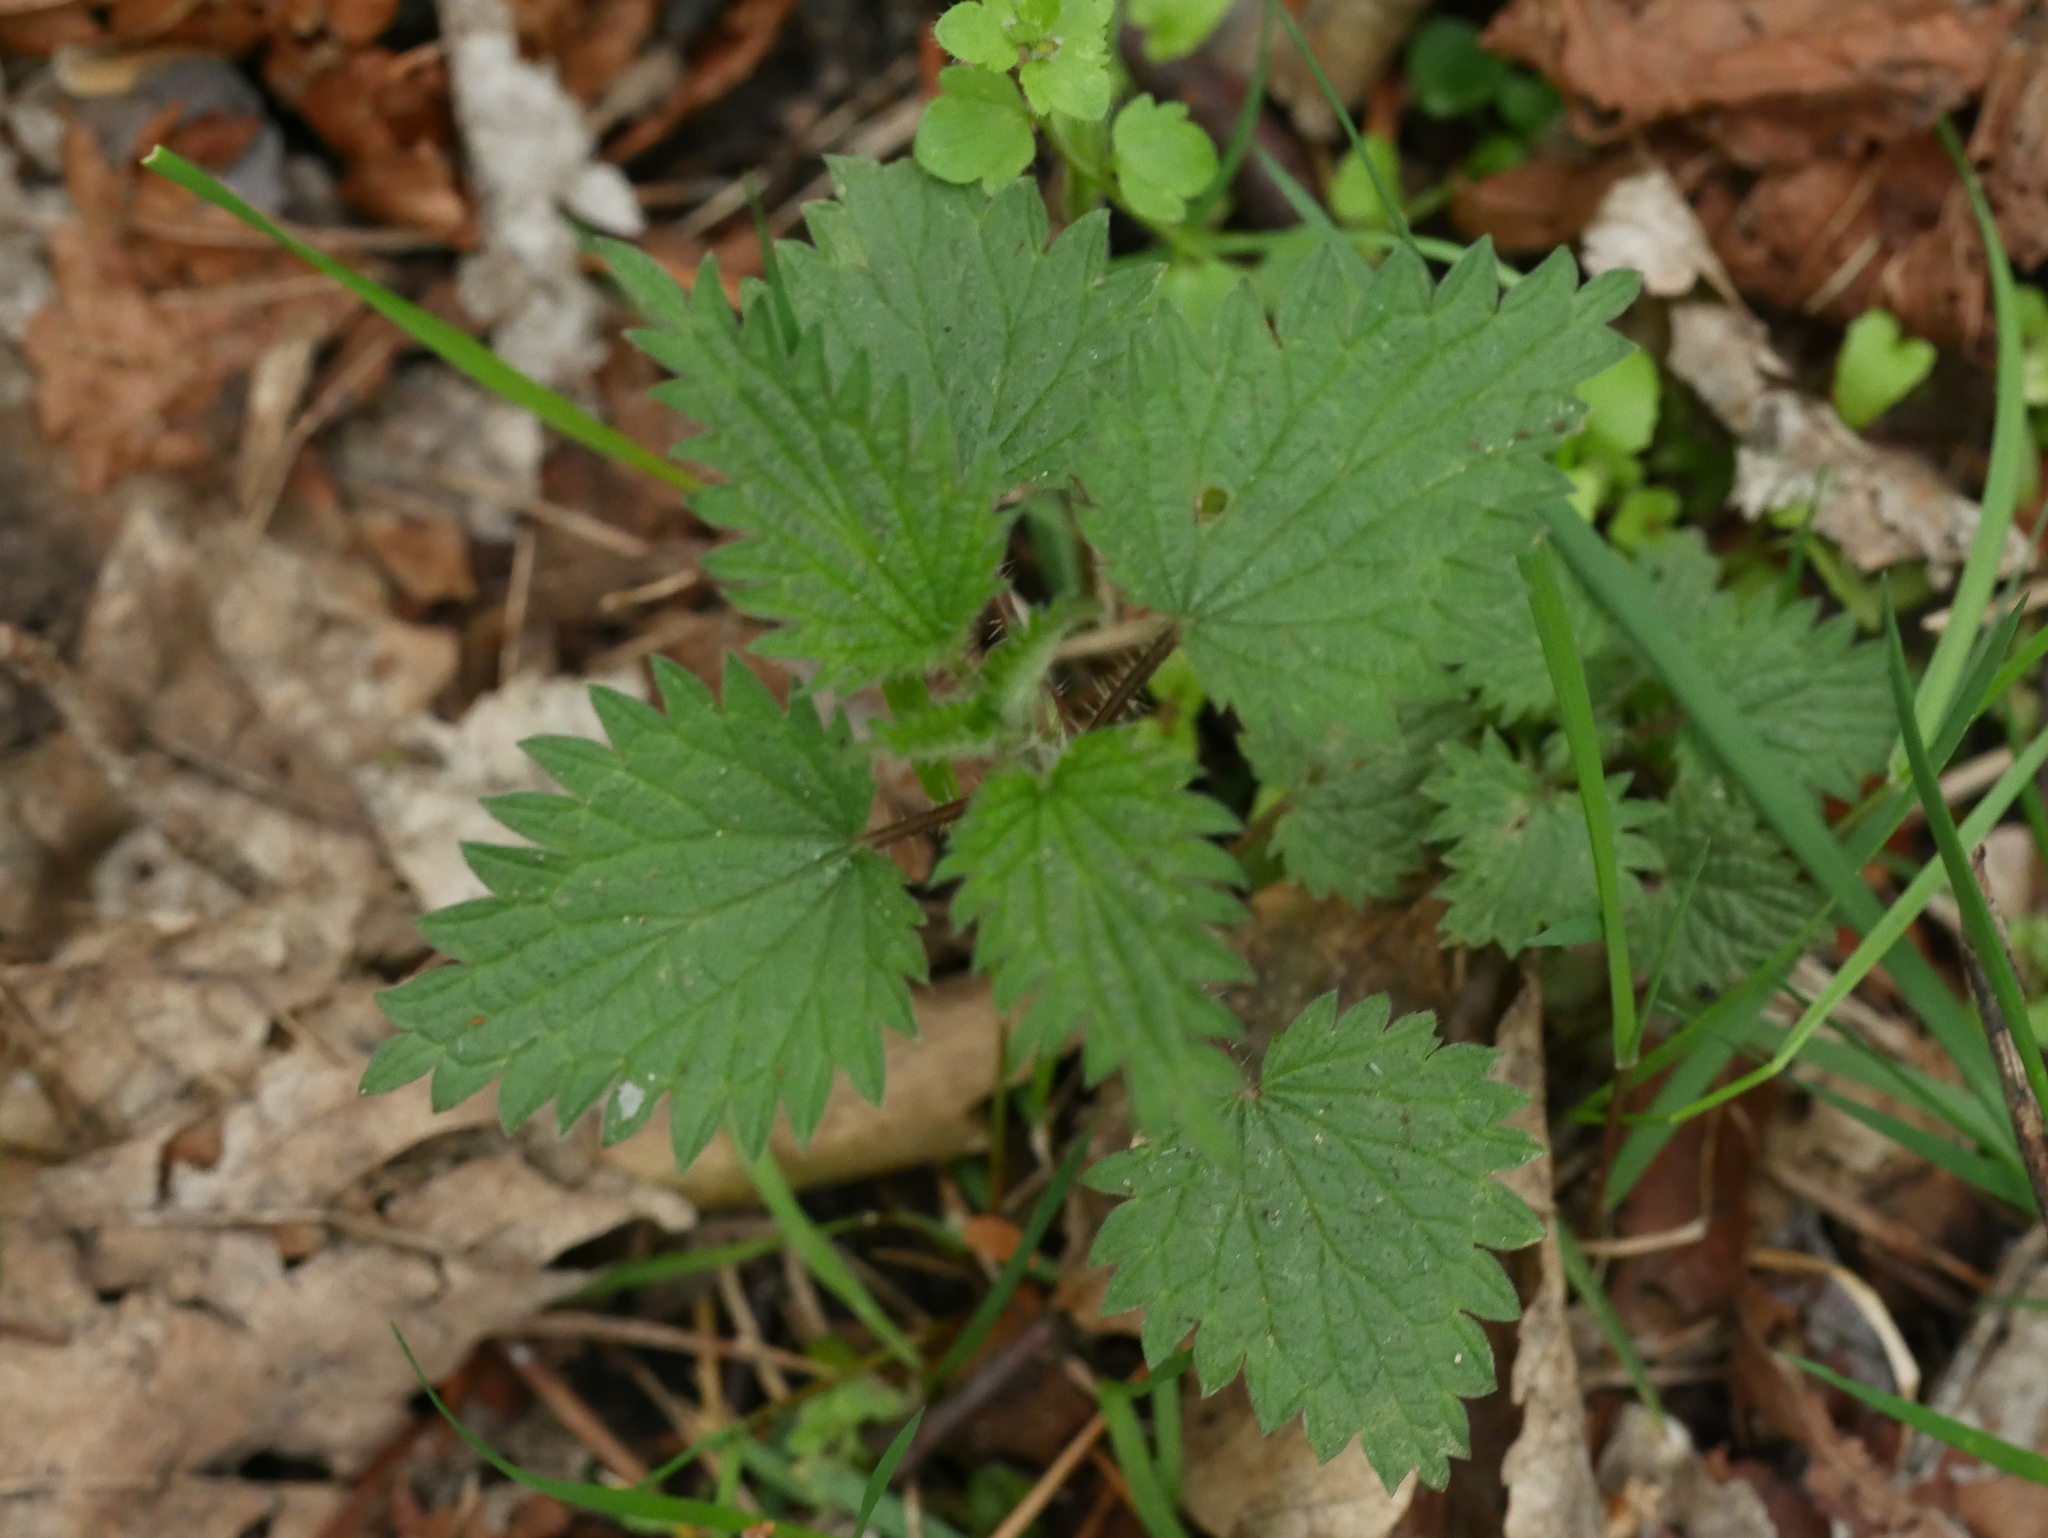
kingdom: Plantae
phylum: Tracheophyta
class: Magnoliopsida
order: Rosales
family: Urticaceae
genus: Urtica
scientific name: Urtica dioica
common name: Common nettle
